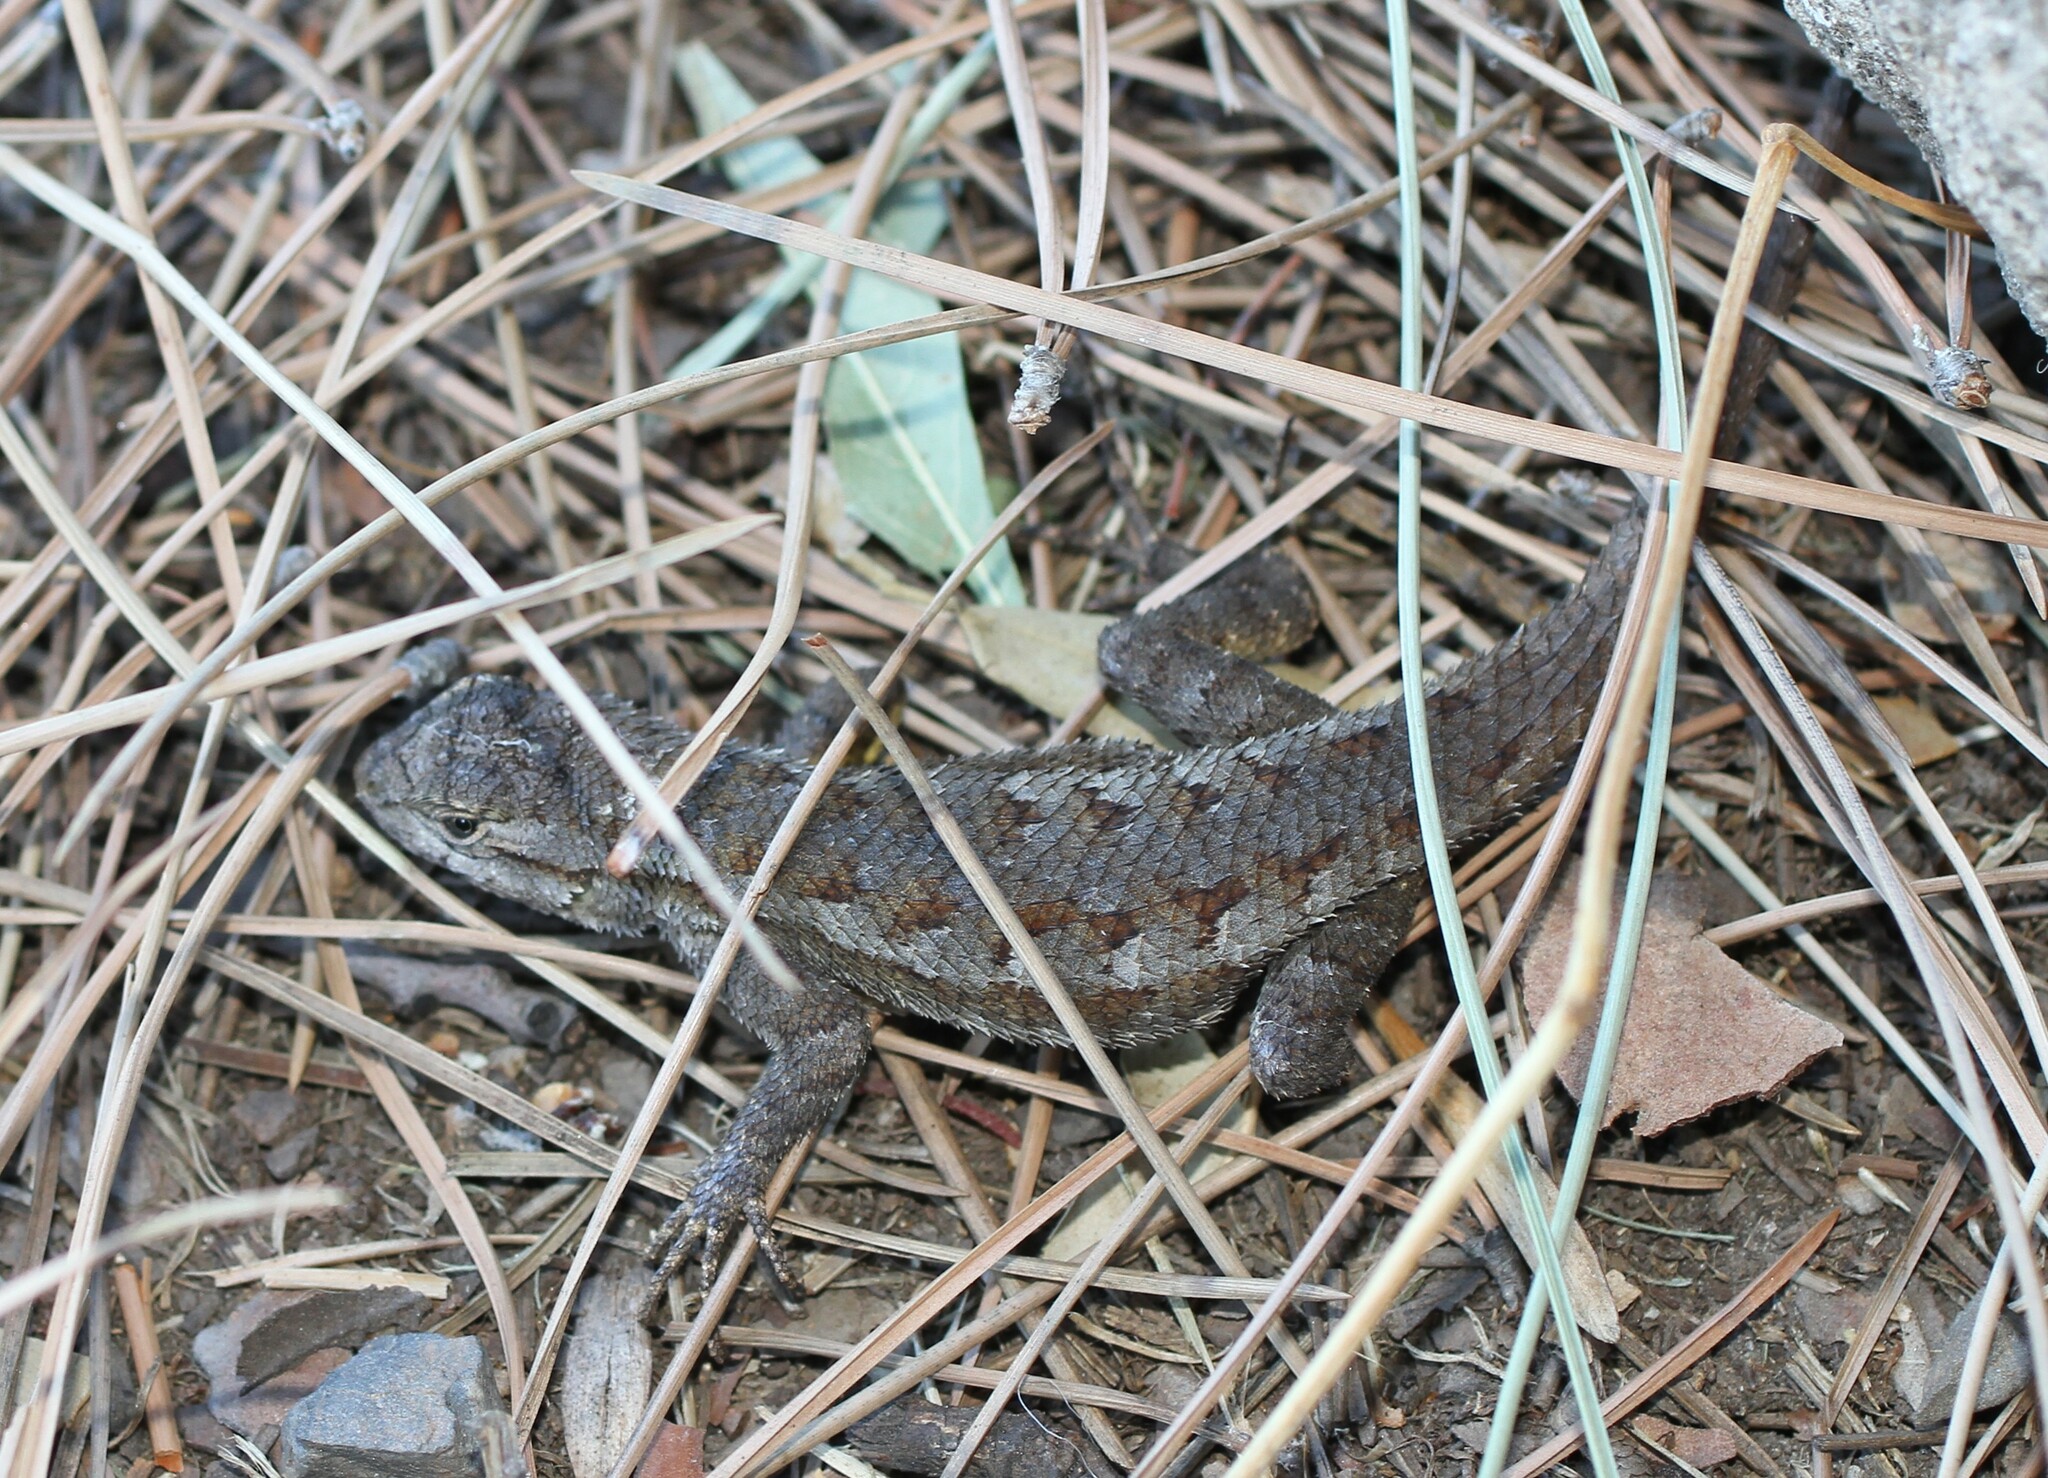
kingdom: Animalia
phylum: Chordata
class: Squamata
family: Phrynosomatidae
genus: Sceloporus
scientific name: Sceloporus occidentalis
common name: Western fence lizard
